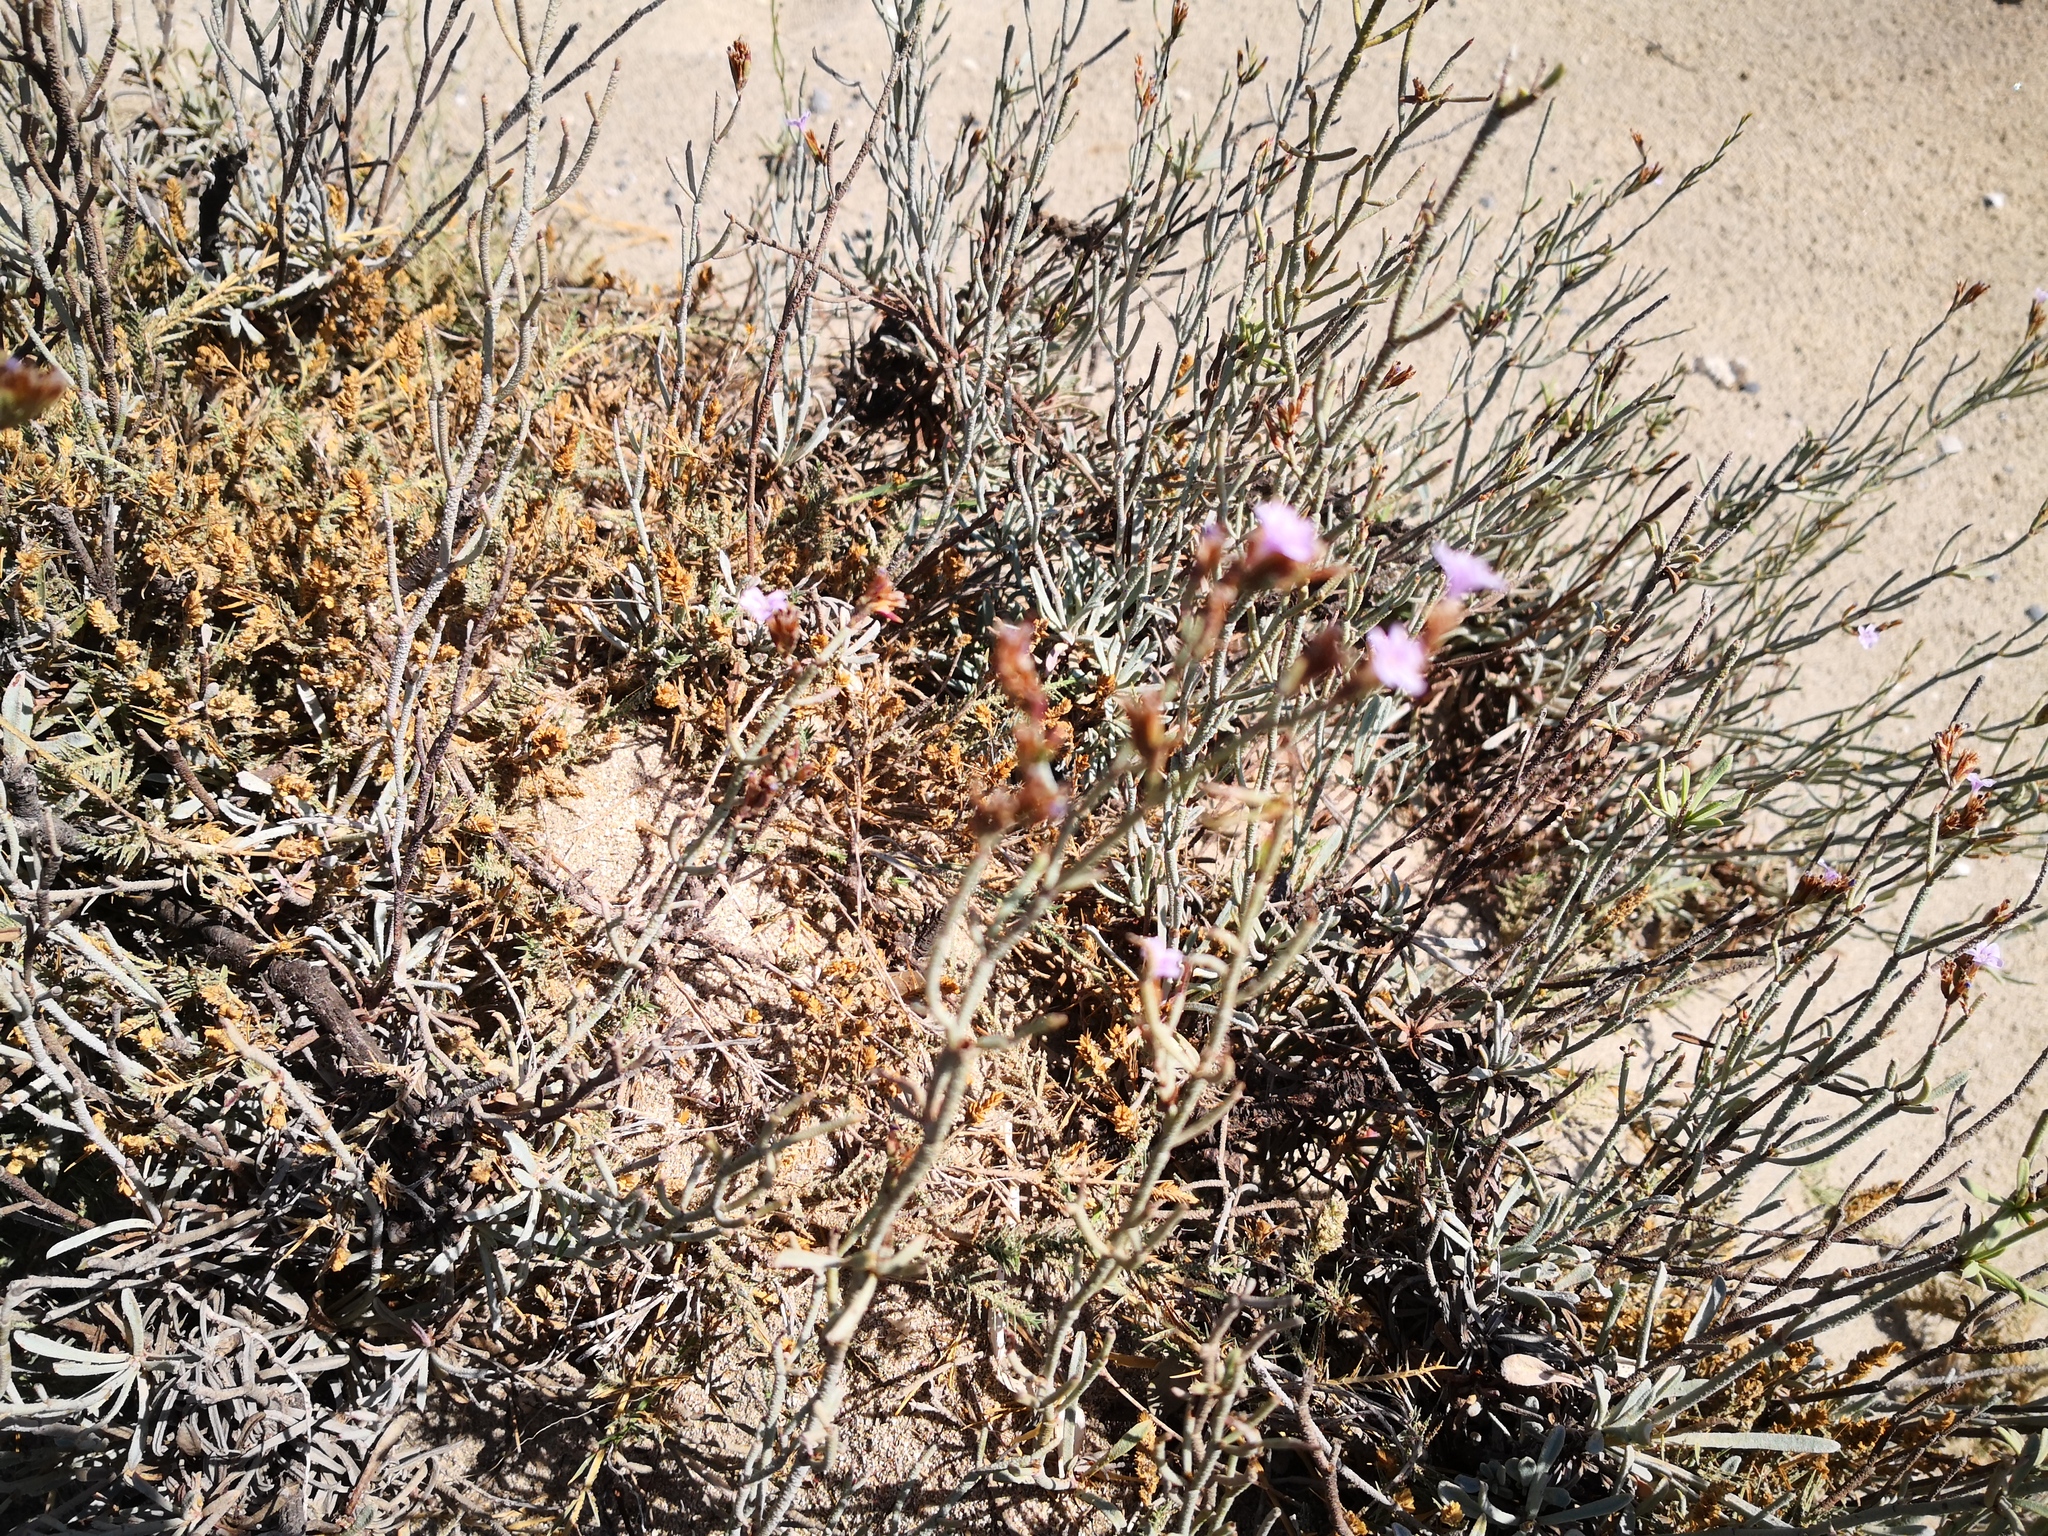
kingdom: Plantae
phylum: Tracheophyta
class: Magnoliopsida
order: Caryophyllales
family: Plumbaginaceae
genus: Limonium
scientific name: Limonium elaphonisicum
